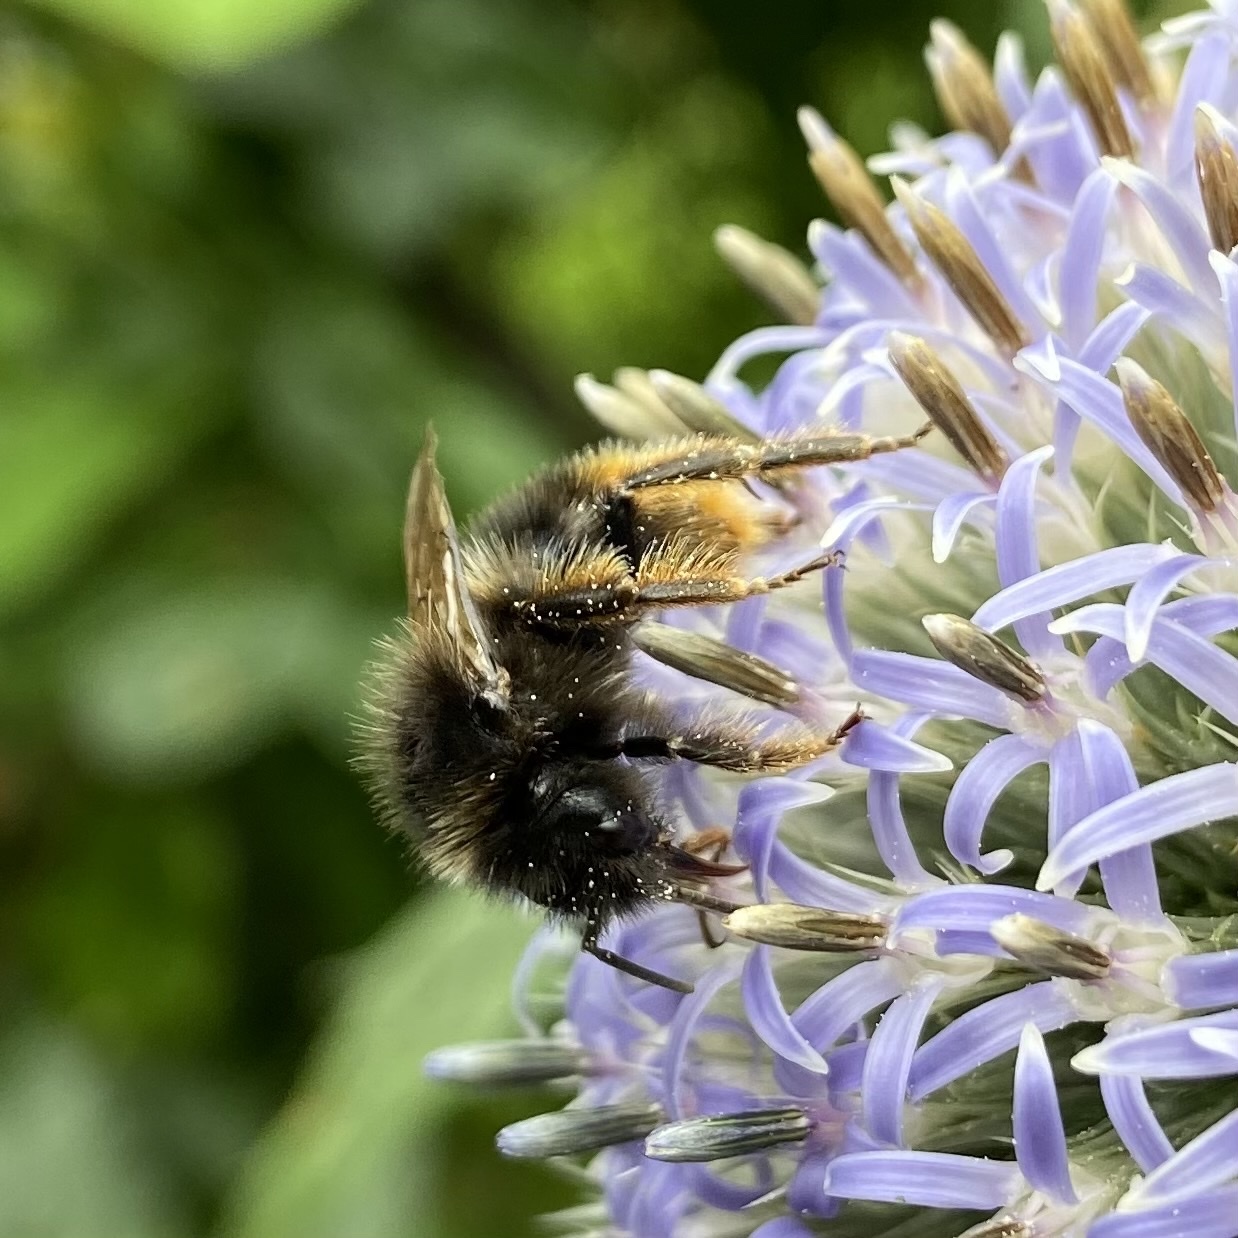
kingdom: Animalia
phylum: Arthropoda
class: Insecta
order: Hymenoptera
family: Apidae
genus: Bombus
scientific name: Bombus rupestris
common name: Hill cuckoo-bee
